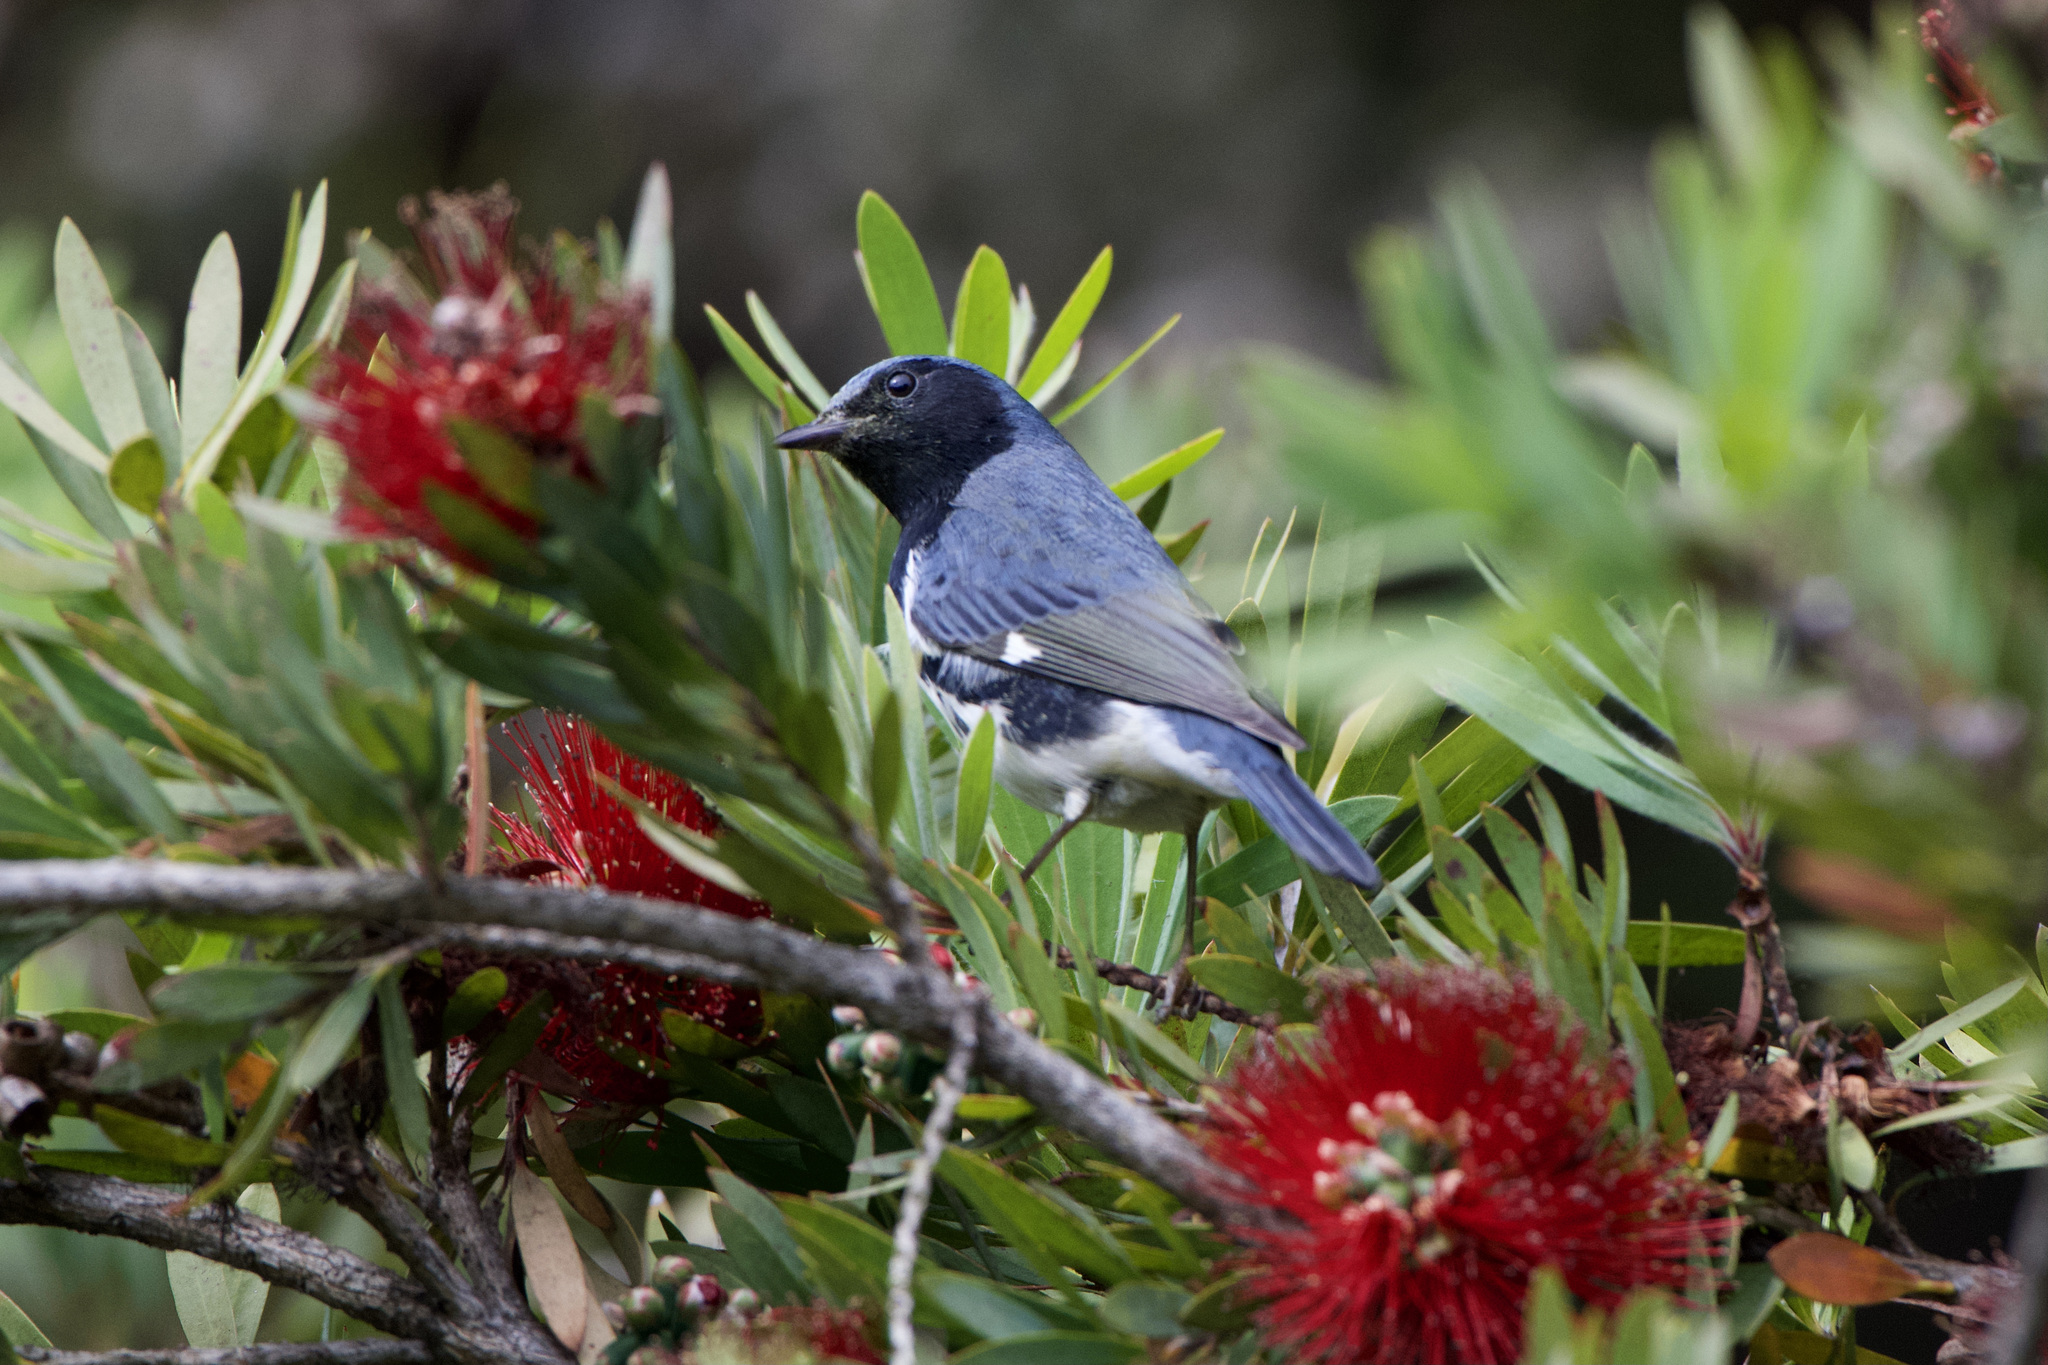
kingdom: Animalia
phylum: Chordata
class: Aves
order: Passeriformes
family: Parulidae
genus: Setophaga
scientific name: Setophaga caerulescens
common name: Black-throated blue warbler
